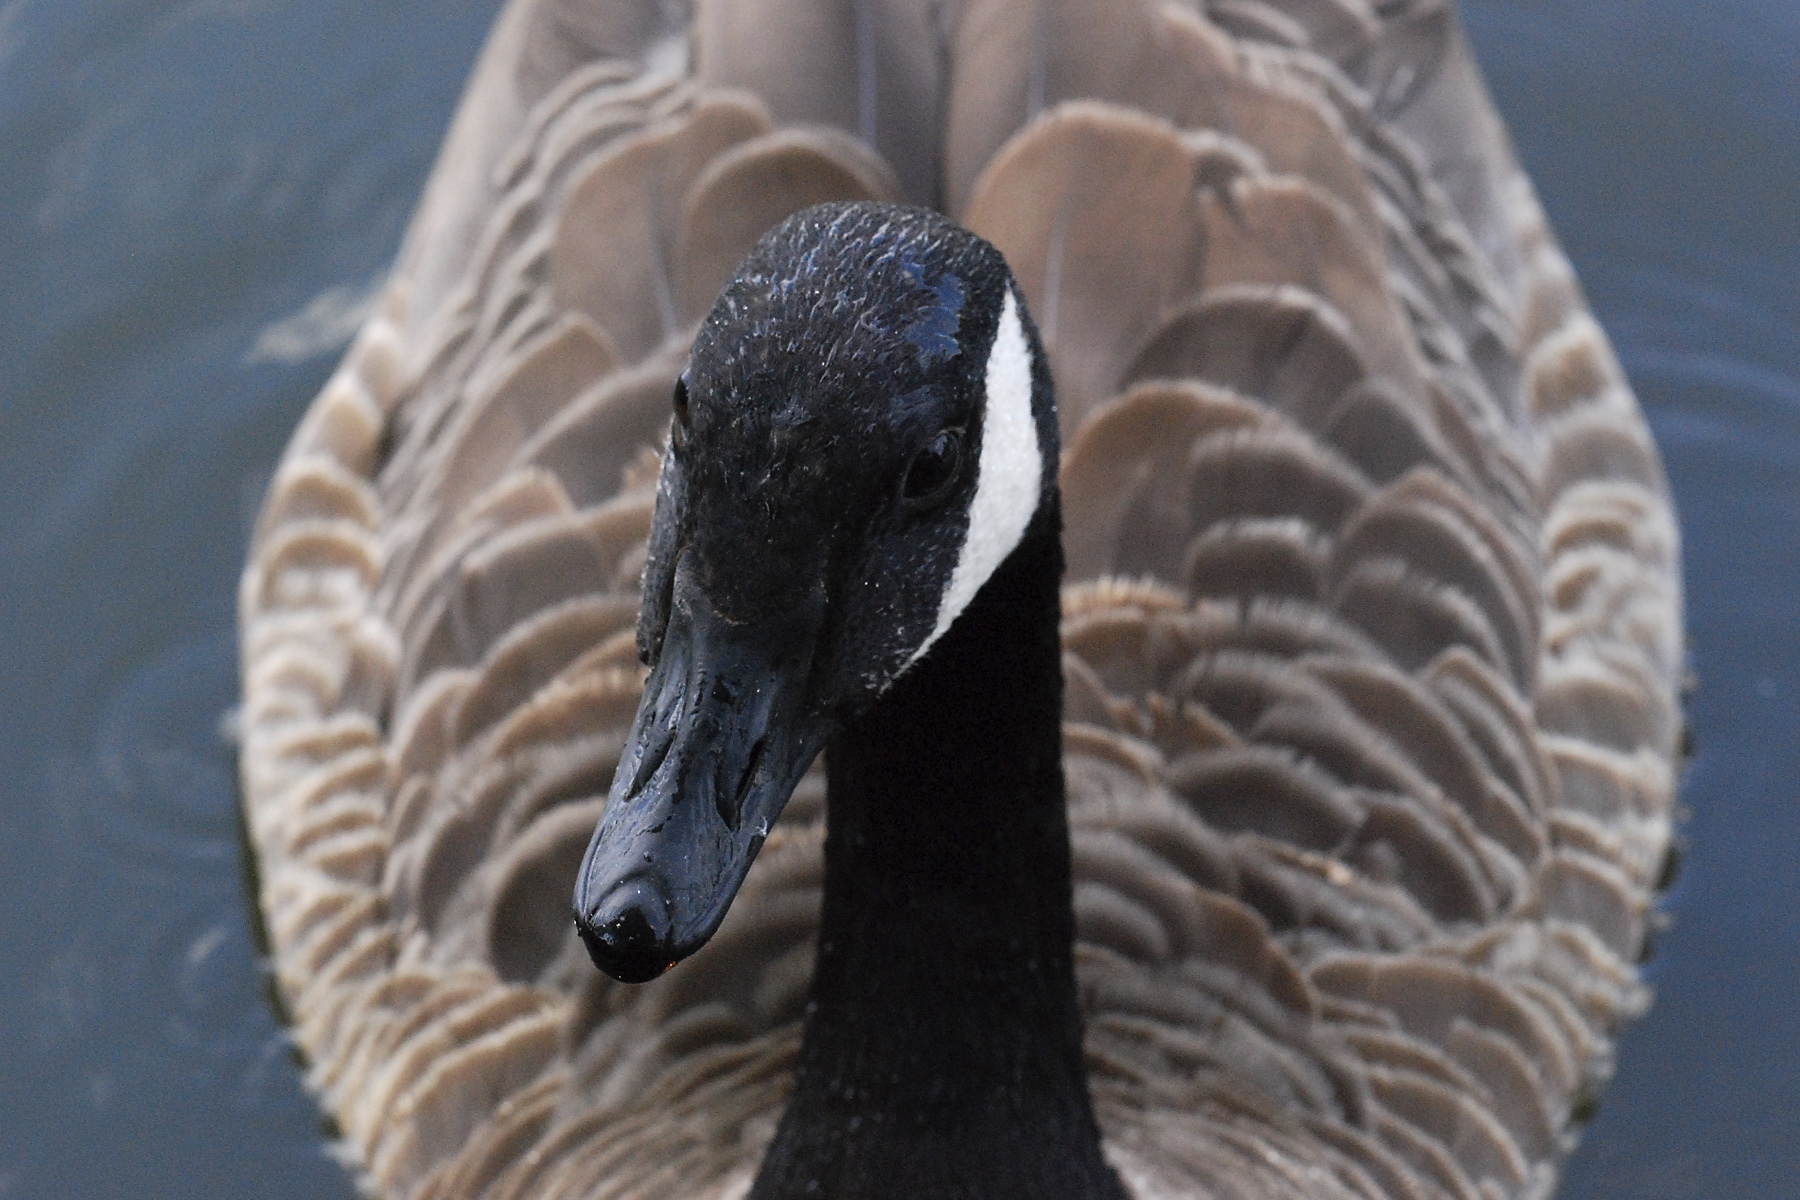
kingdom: Animalia
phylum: Chordata
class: Aves
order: Anseriformes
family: Anatidae
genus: Branta
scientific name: Branta canadensis
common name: Canada goose
